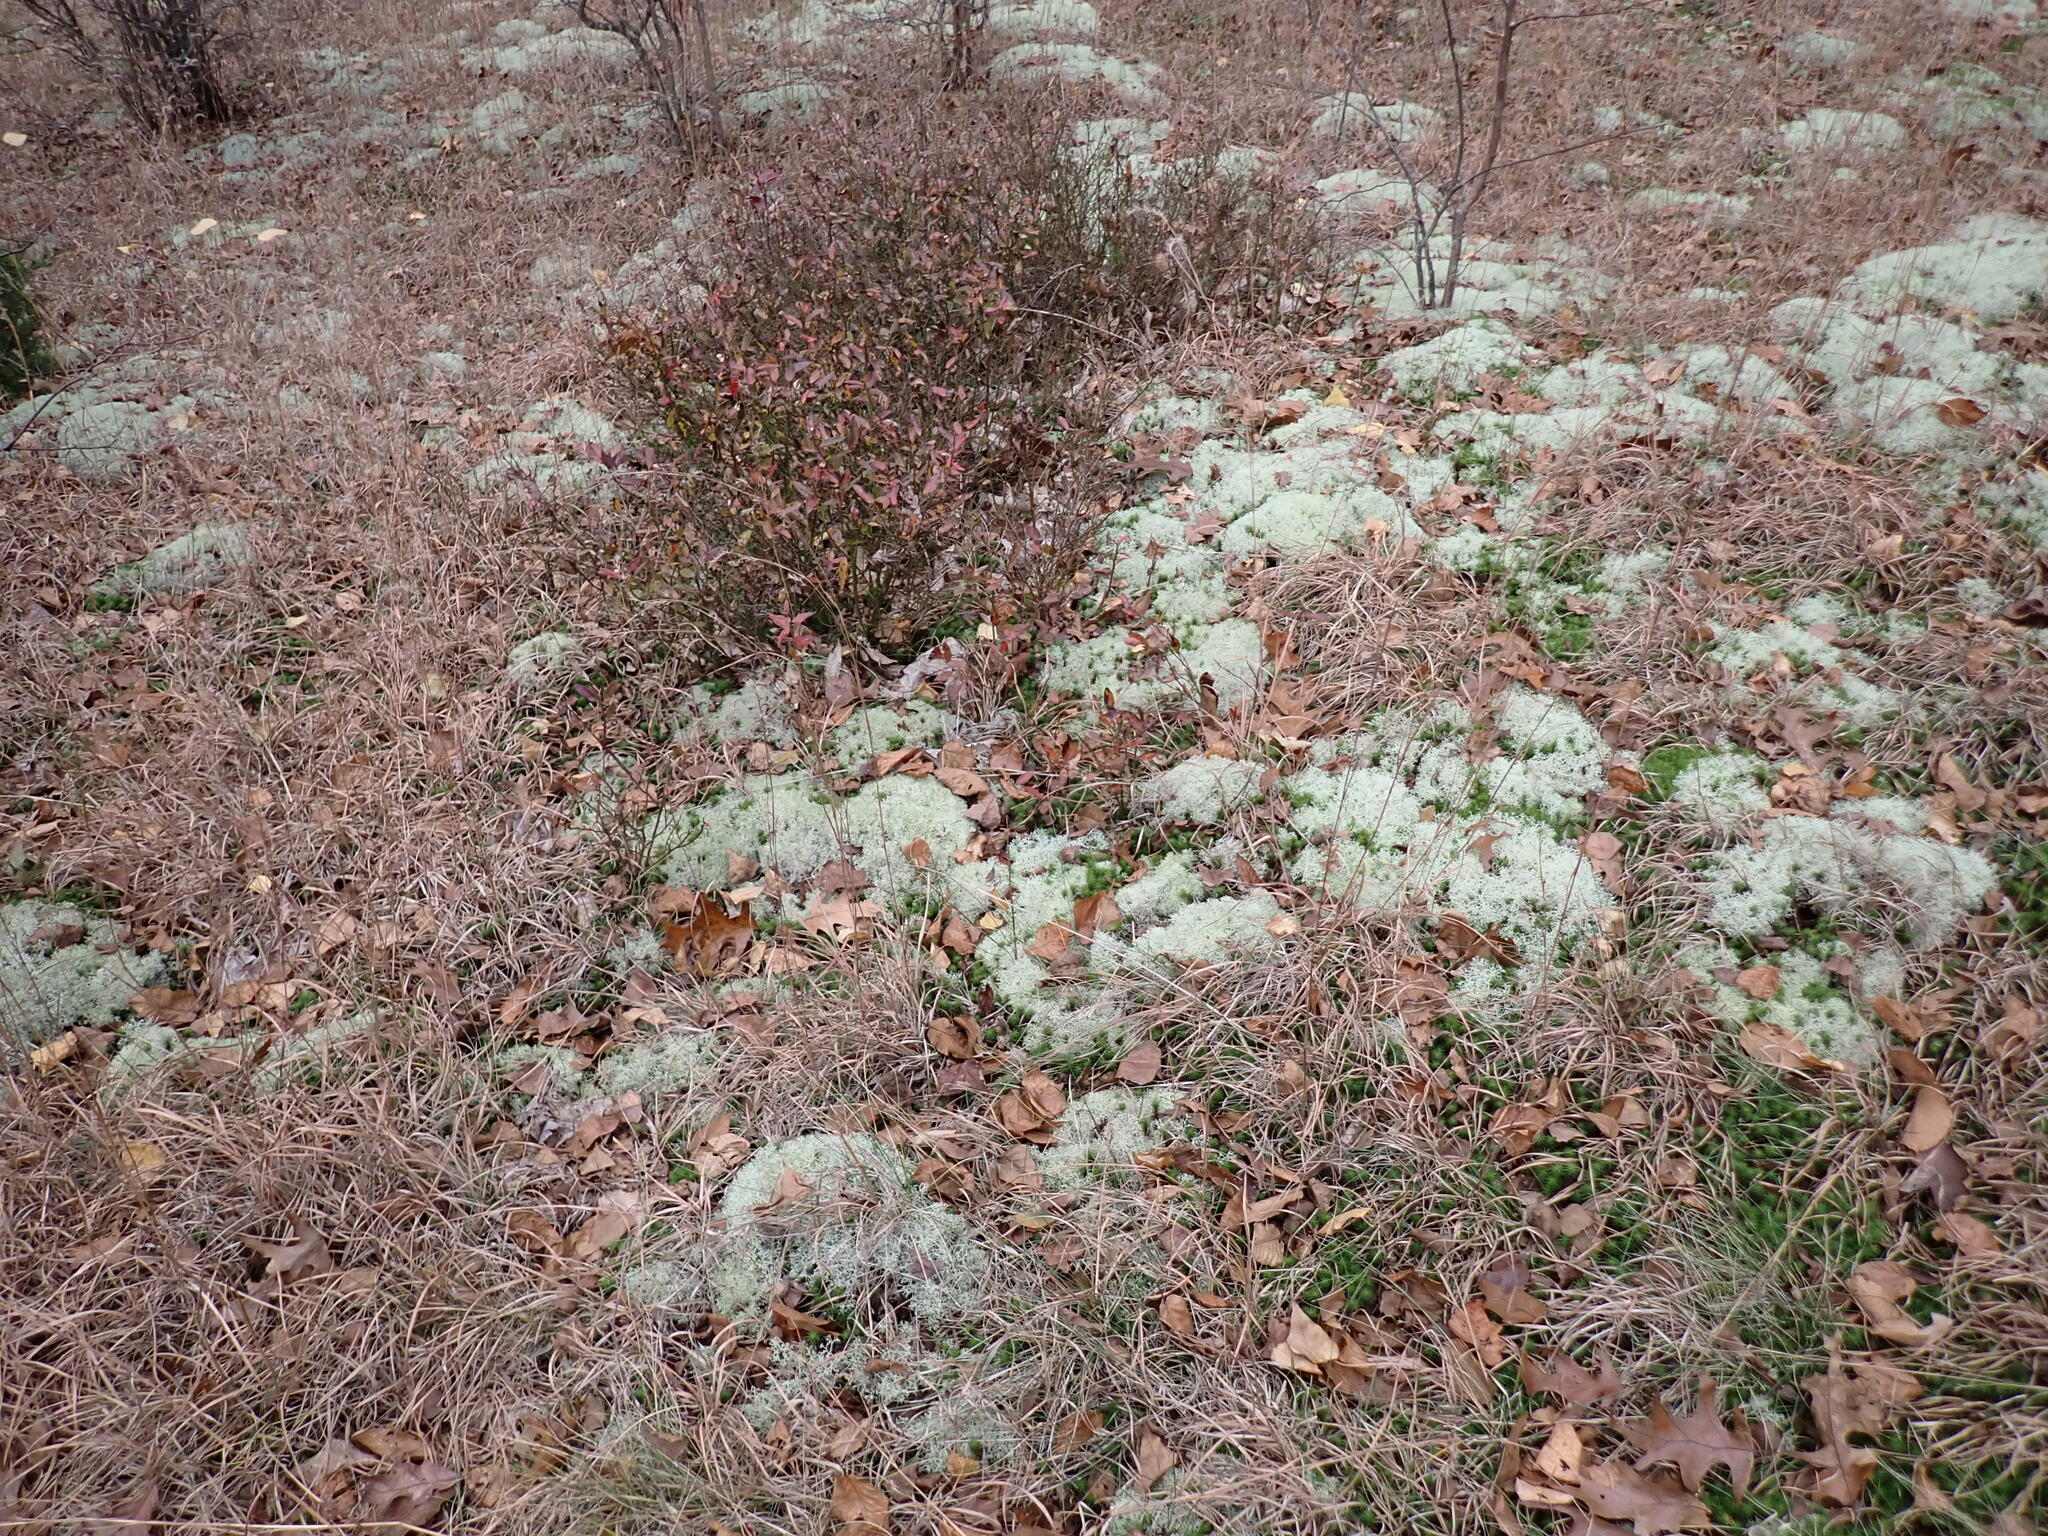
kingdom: Fungi
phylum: Basidiomycota
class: Agaricomycetes
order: Agaricales
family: Hydnangiaceae
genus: Laccaria
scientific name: Laccaria laccata
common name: Deceiver
